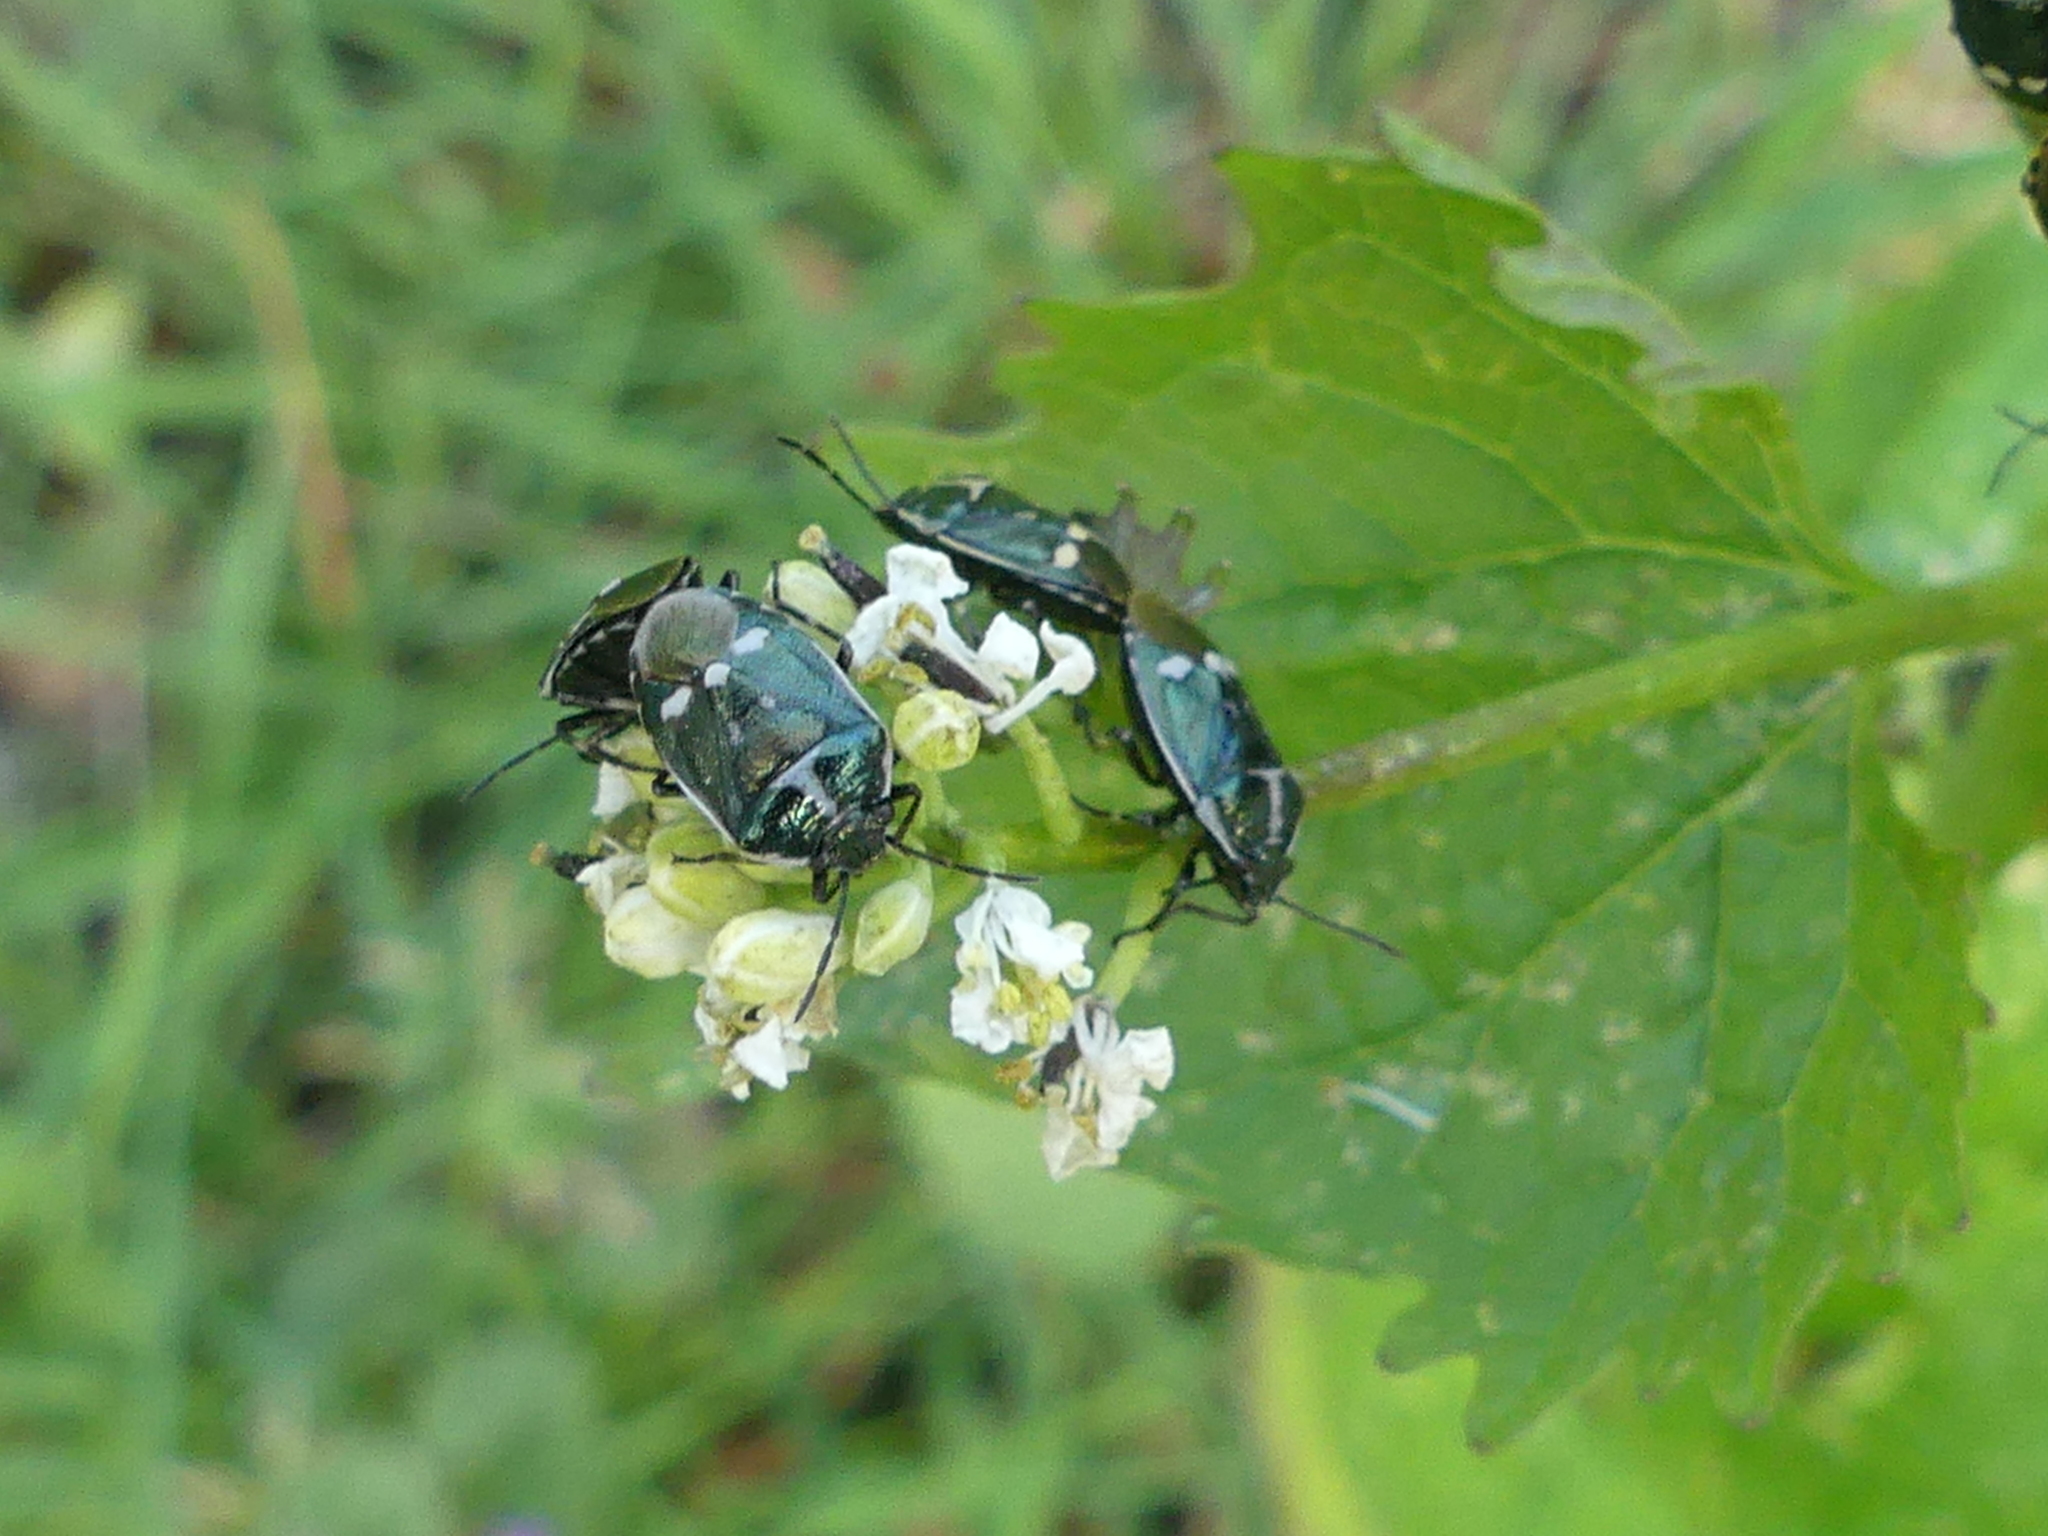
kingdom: Animalia
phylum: Arthropoda
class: Insecta
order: Hemiptera
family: Pentatomidae
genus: Eurydema
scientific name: Eurydema oleracea
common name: Cabbage bug
